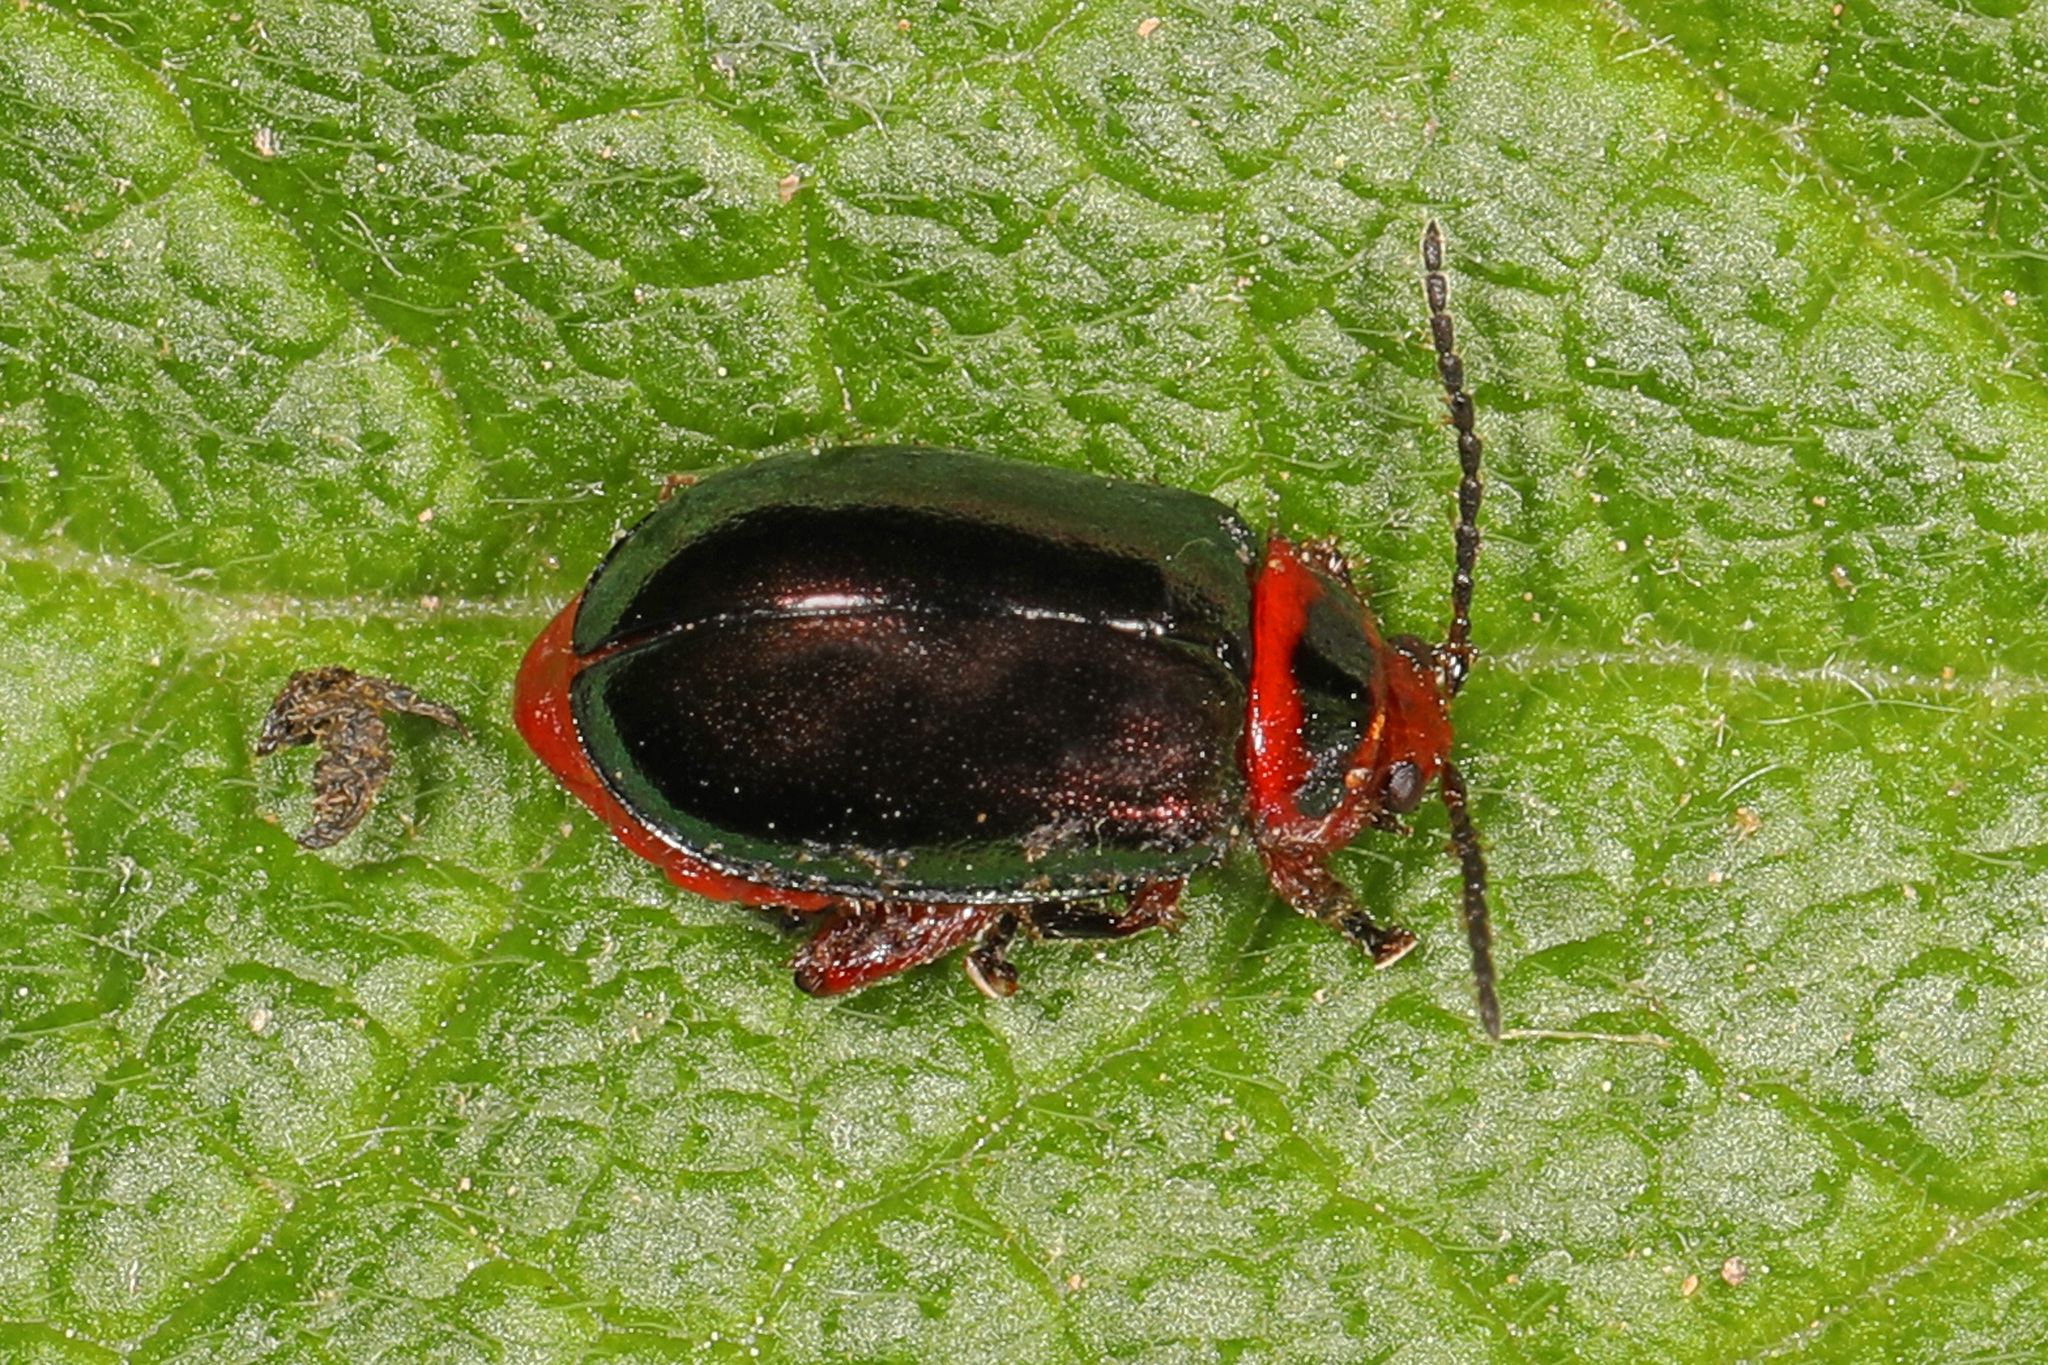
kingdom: Animalia
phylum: Arthropoda
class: Insecta
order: Coleoptera
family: Chrysomelidae
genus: Kuschelina
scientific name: Kuschelina gibbitarsa
